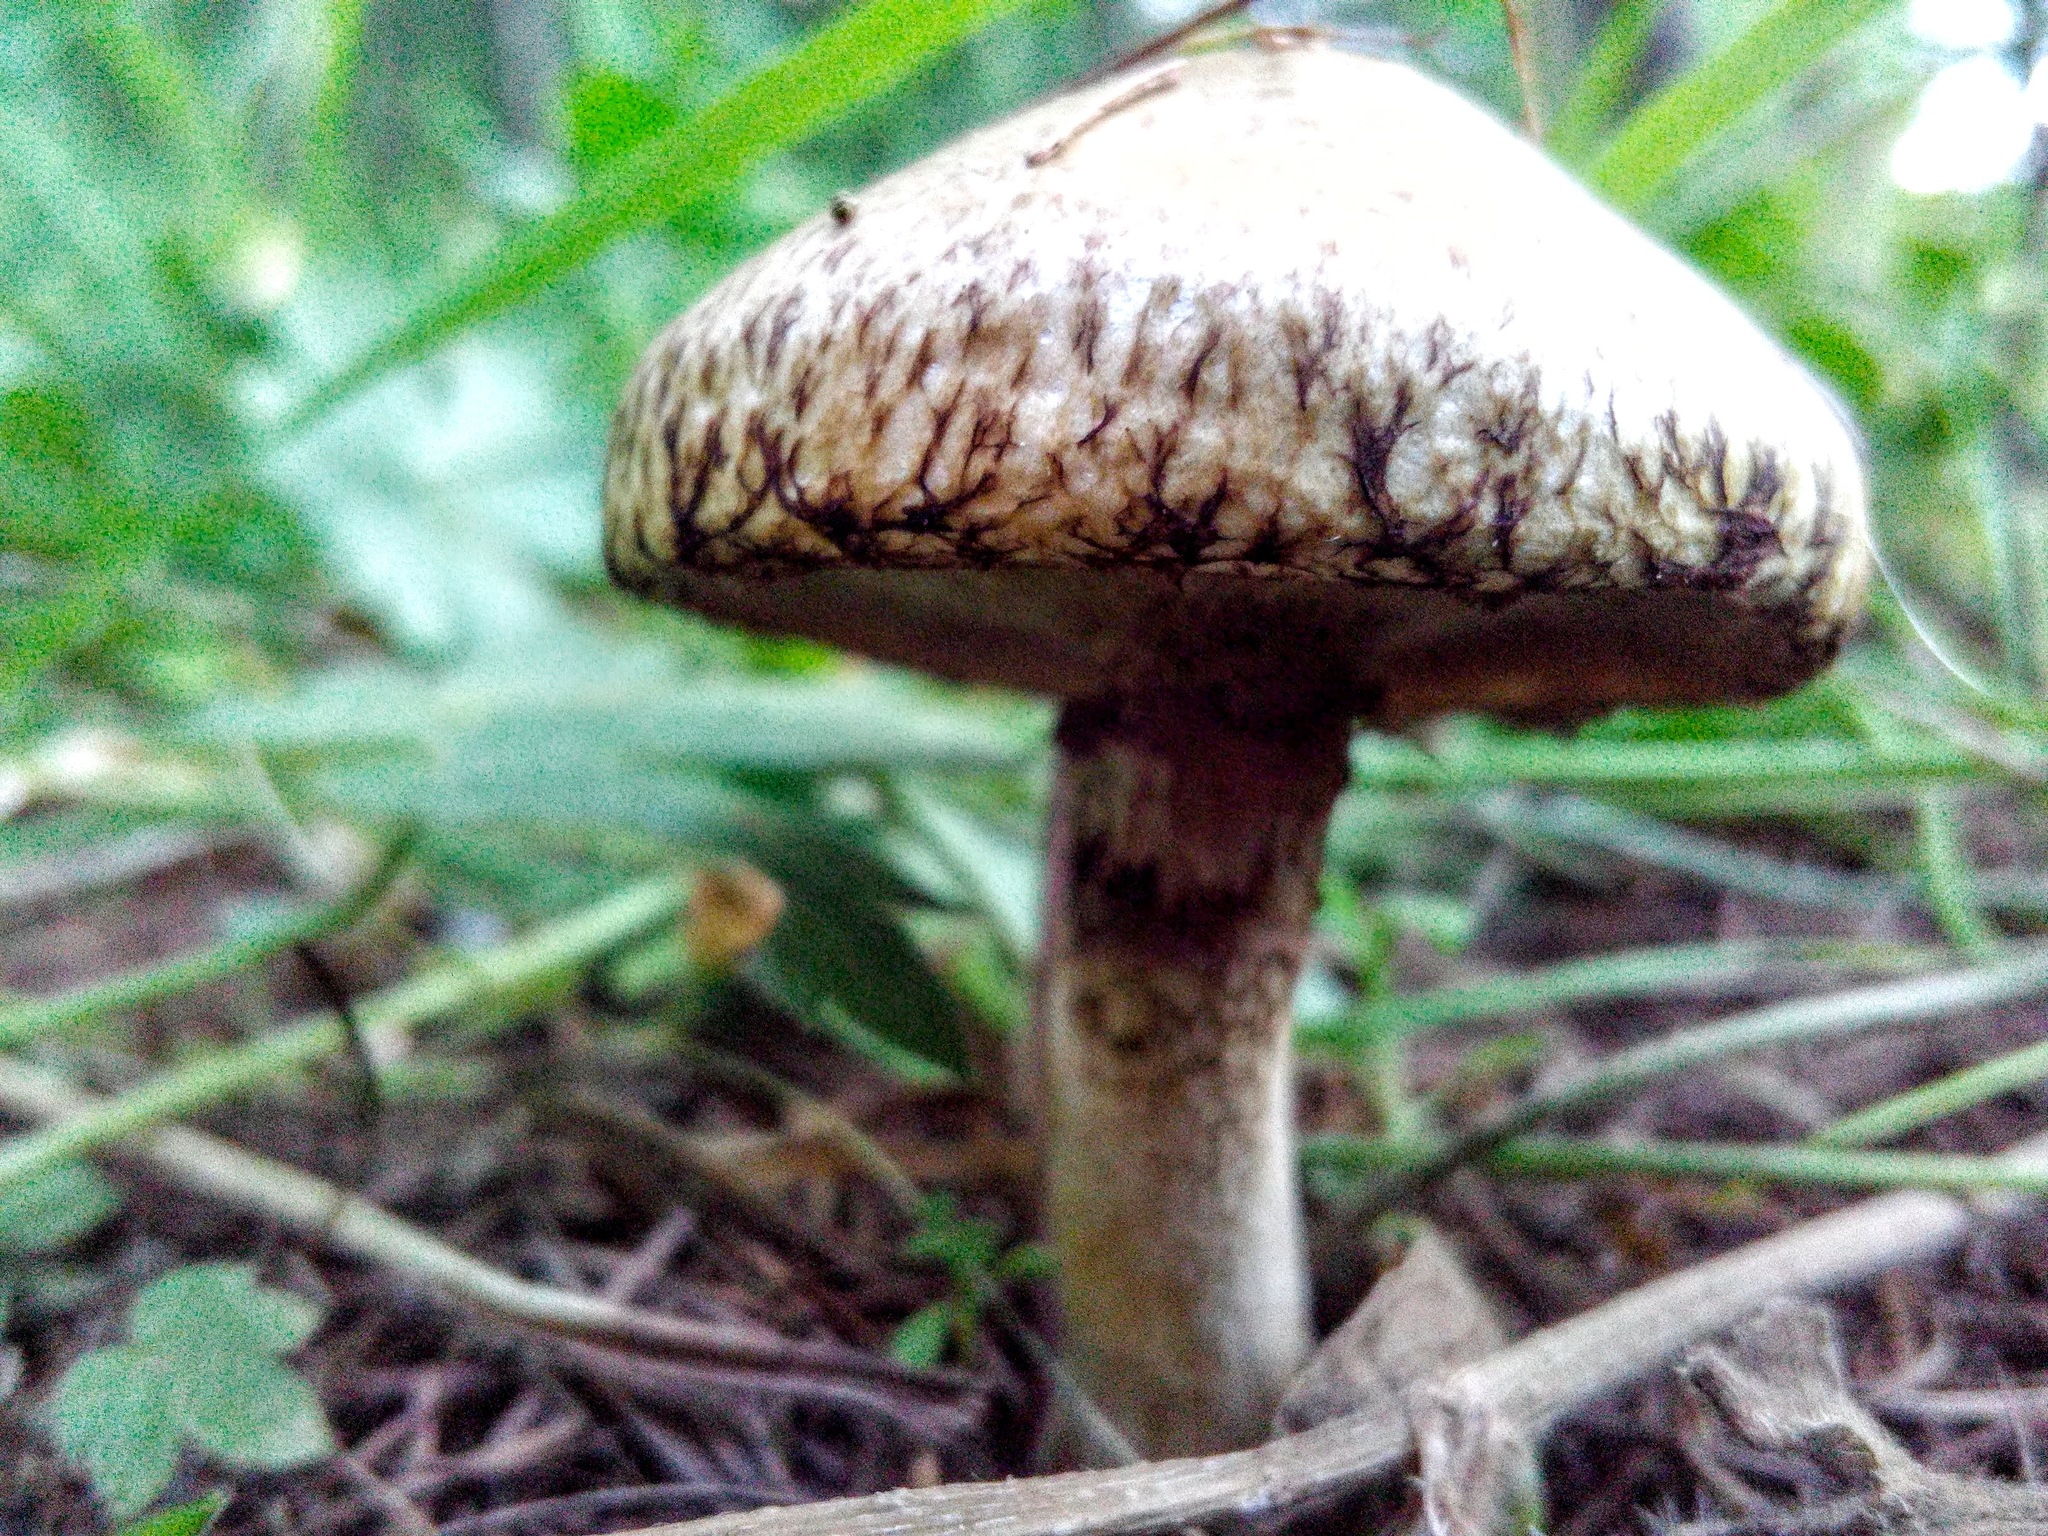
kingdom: Fungi
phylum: Basidiomycota
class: Agaricomycetes
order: Boletales
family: Suillaceae
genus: Suillus
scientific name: Suillus viscidus
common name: Sticky bolete
